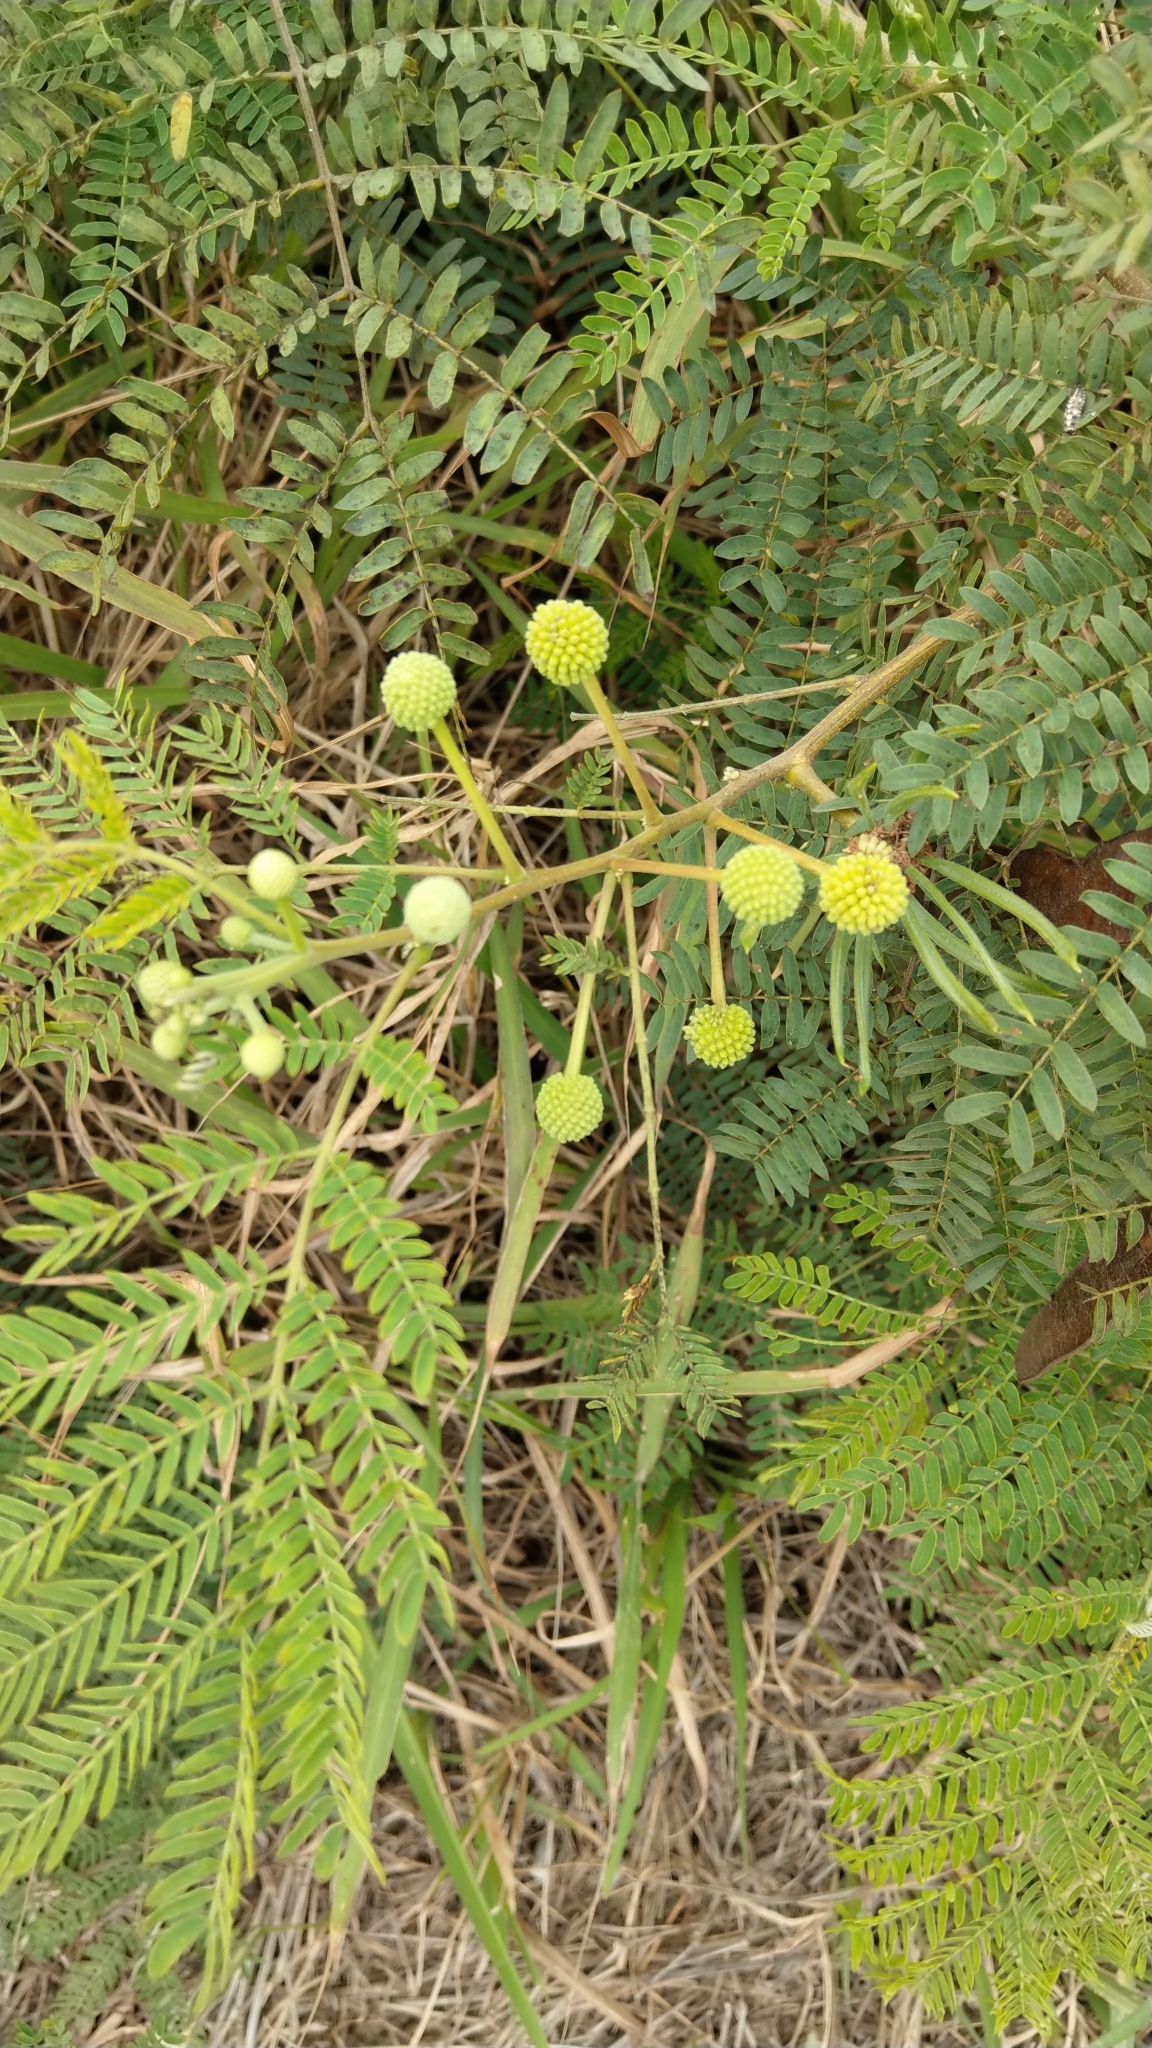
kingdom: Plantae
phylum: Tracheophyta
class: Magnoliopsida
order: Fabales
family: Fabaceae
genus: Leucaena
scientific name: Leucaena leucocephala
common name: White leadtree
